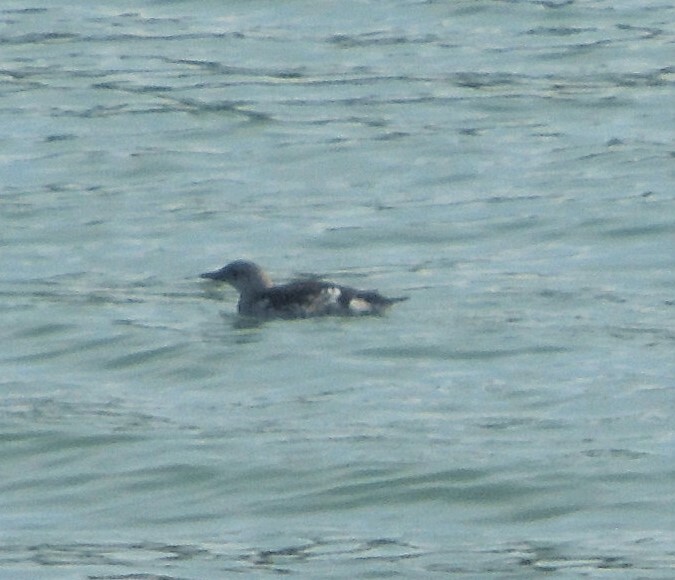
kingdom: Animalia
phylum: Chordata
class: Aves
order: Charadriiformes
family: Alcidae
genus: Cepphus
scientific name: Cepphus grylle
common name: Black guillemot
